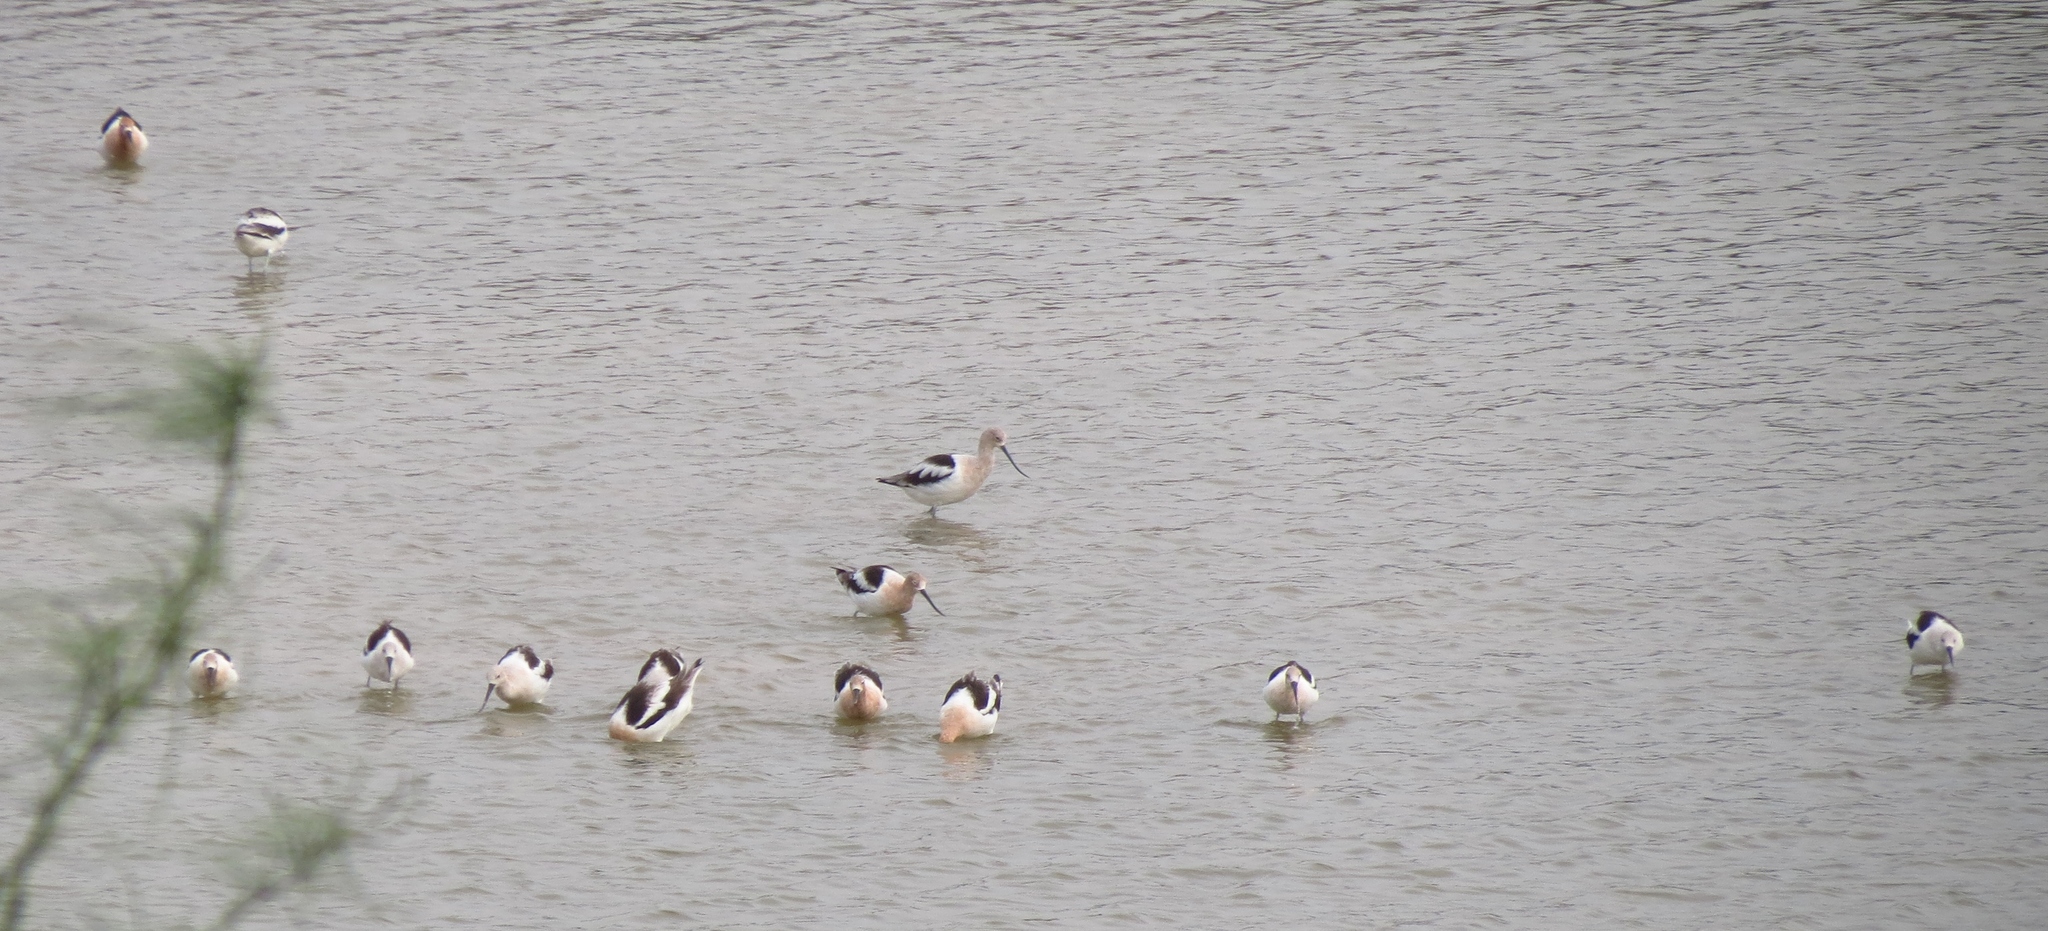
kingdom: Animalia
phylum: Chordata
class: Aves
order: Charadriiformes
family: Recurvirostridae
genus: Recurvirostra
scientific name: Recurvirostra americana
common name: American avocet
